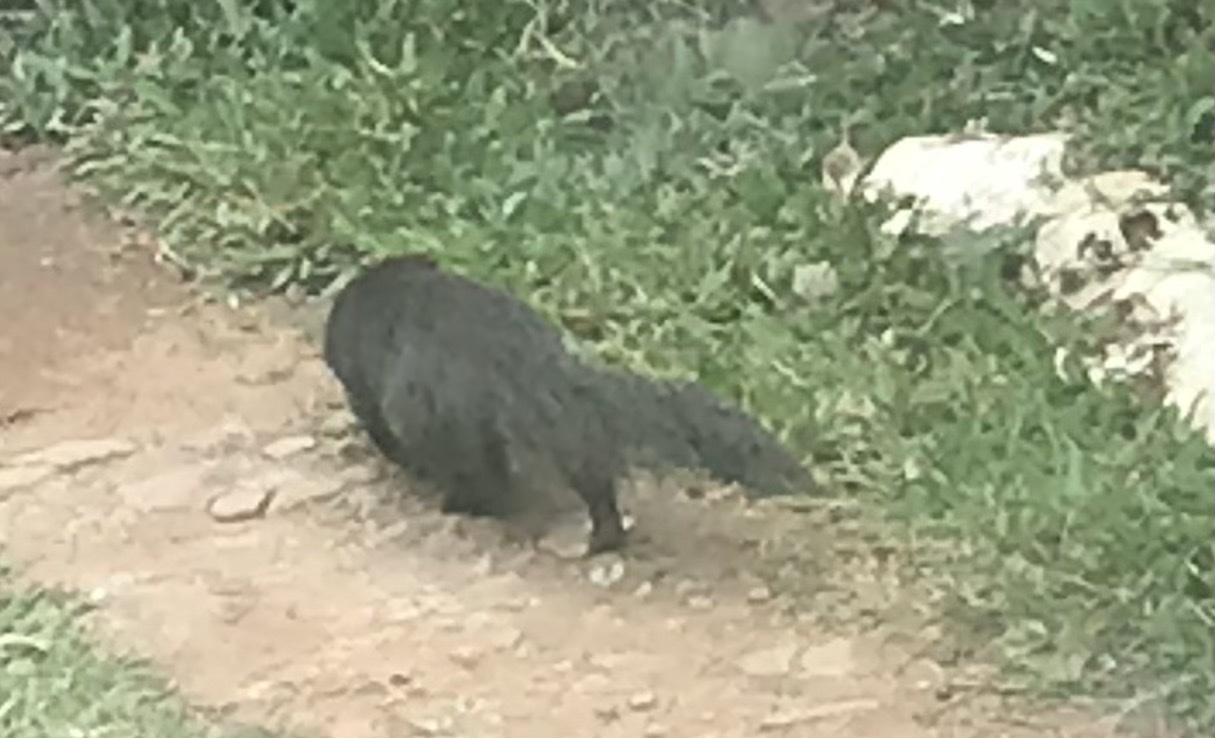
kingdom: Animalia
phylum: Chordata
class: Mammalia
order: Carnivora
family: Herpestidae
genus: Herpestes
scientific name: Herpestes fuscus
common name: Indian brown mongoose
